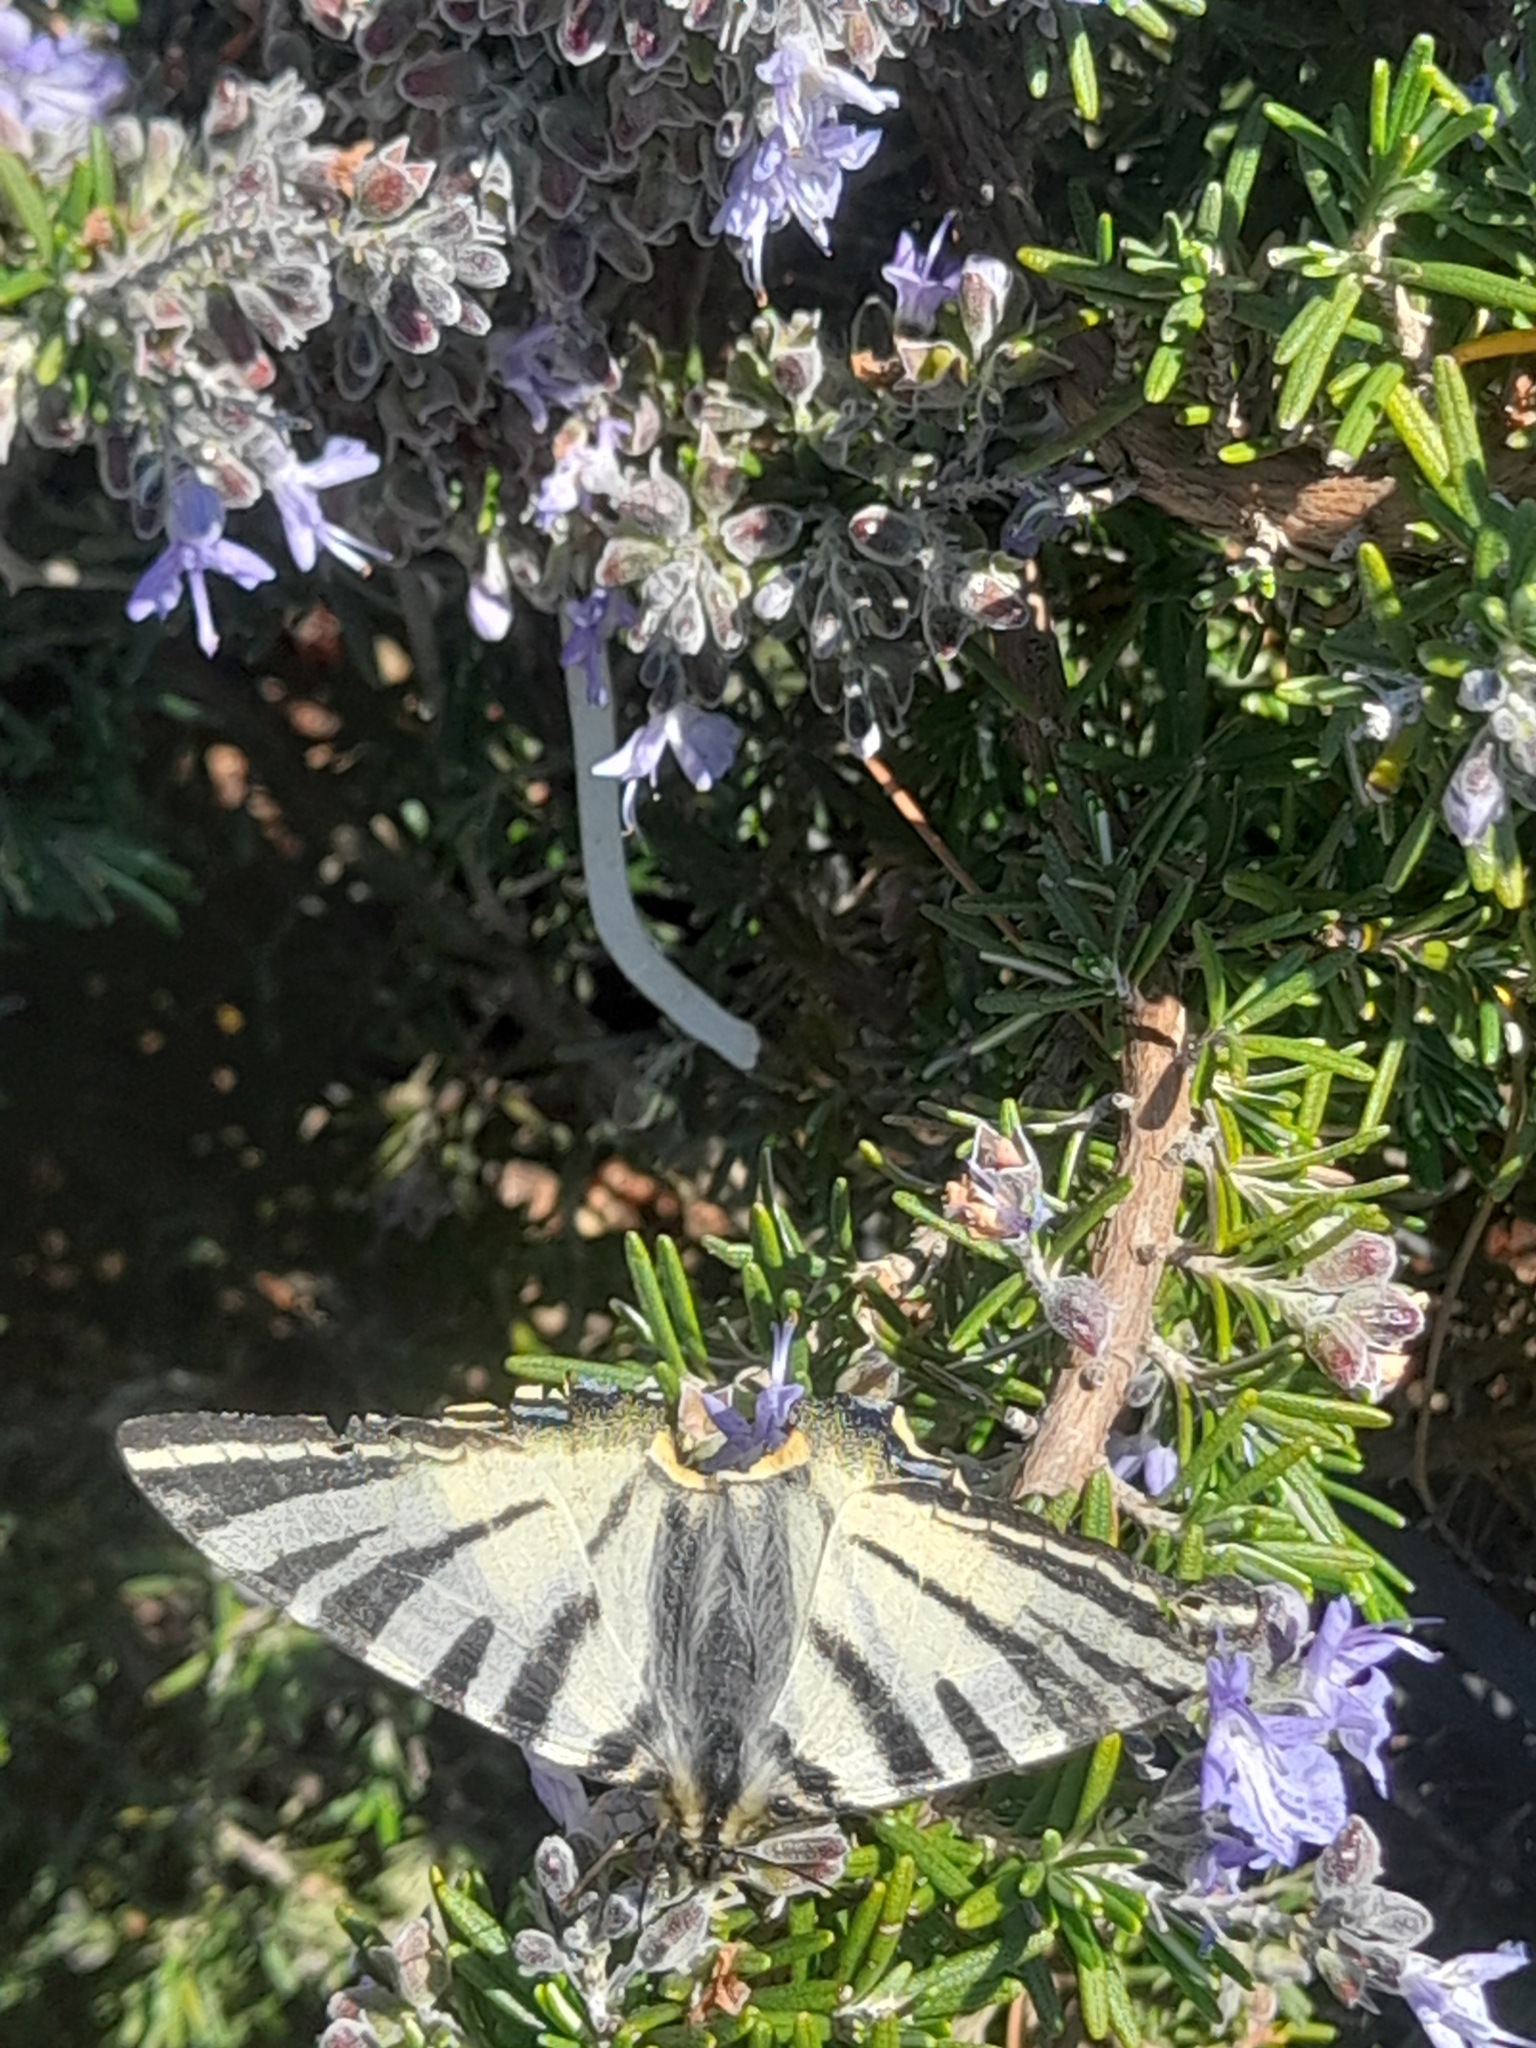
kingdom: Animalia
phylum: Arthropoda
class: Insecta
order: Lepidoptera
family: Papilionidae
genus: Iphiclides
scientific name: Iphiclides podalirius
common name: Scarce swallowtail
